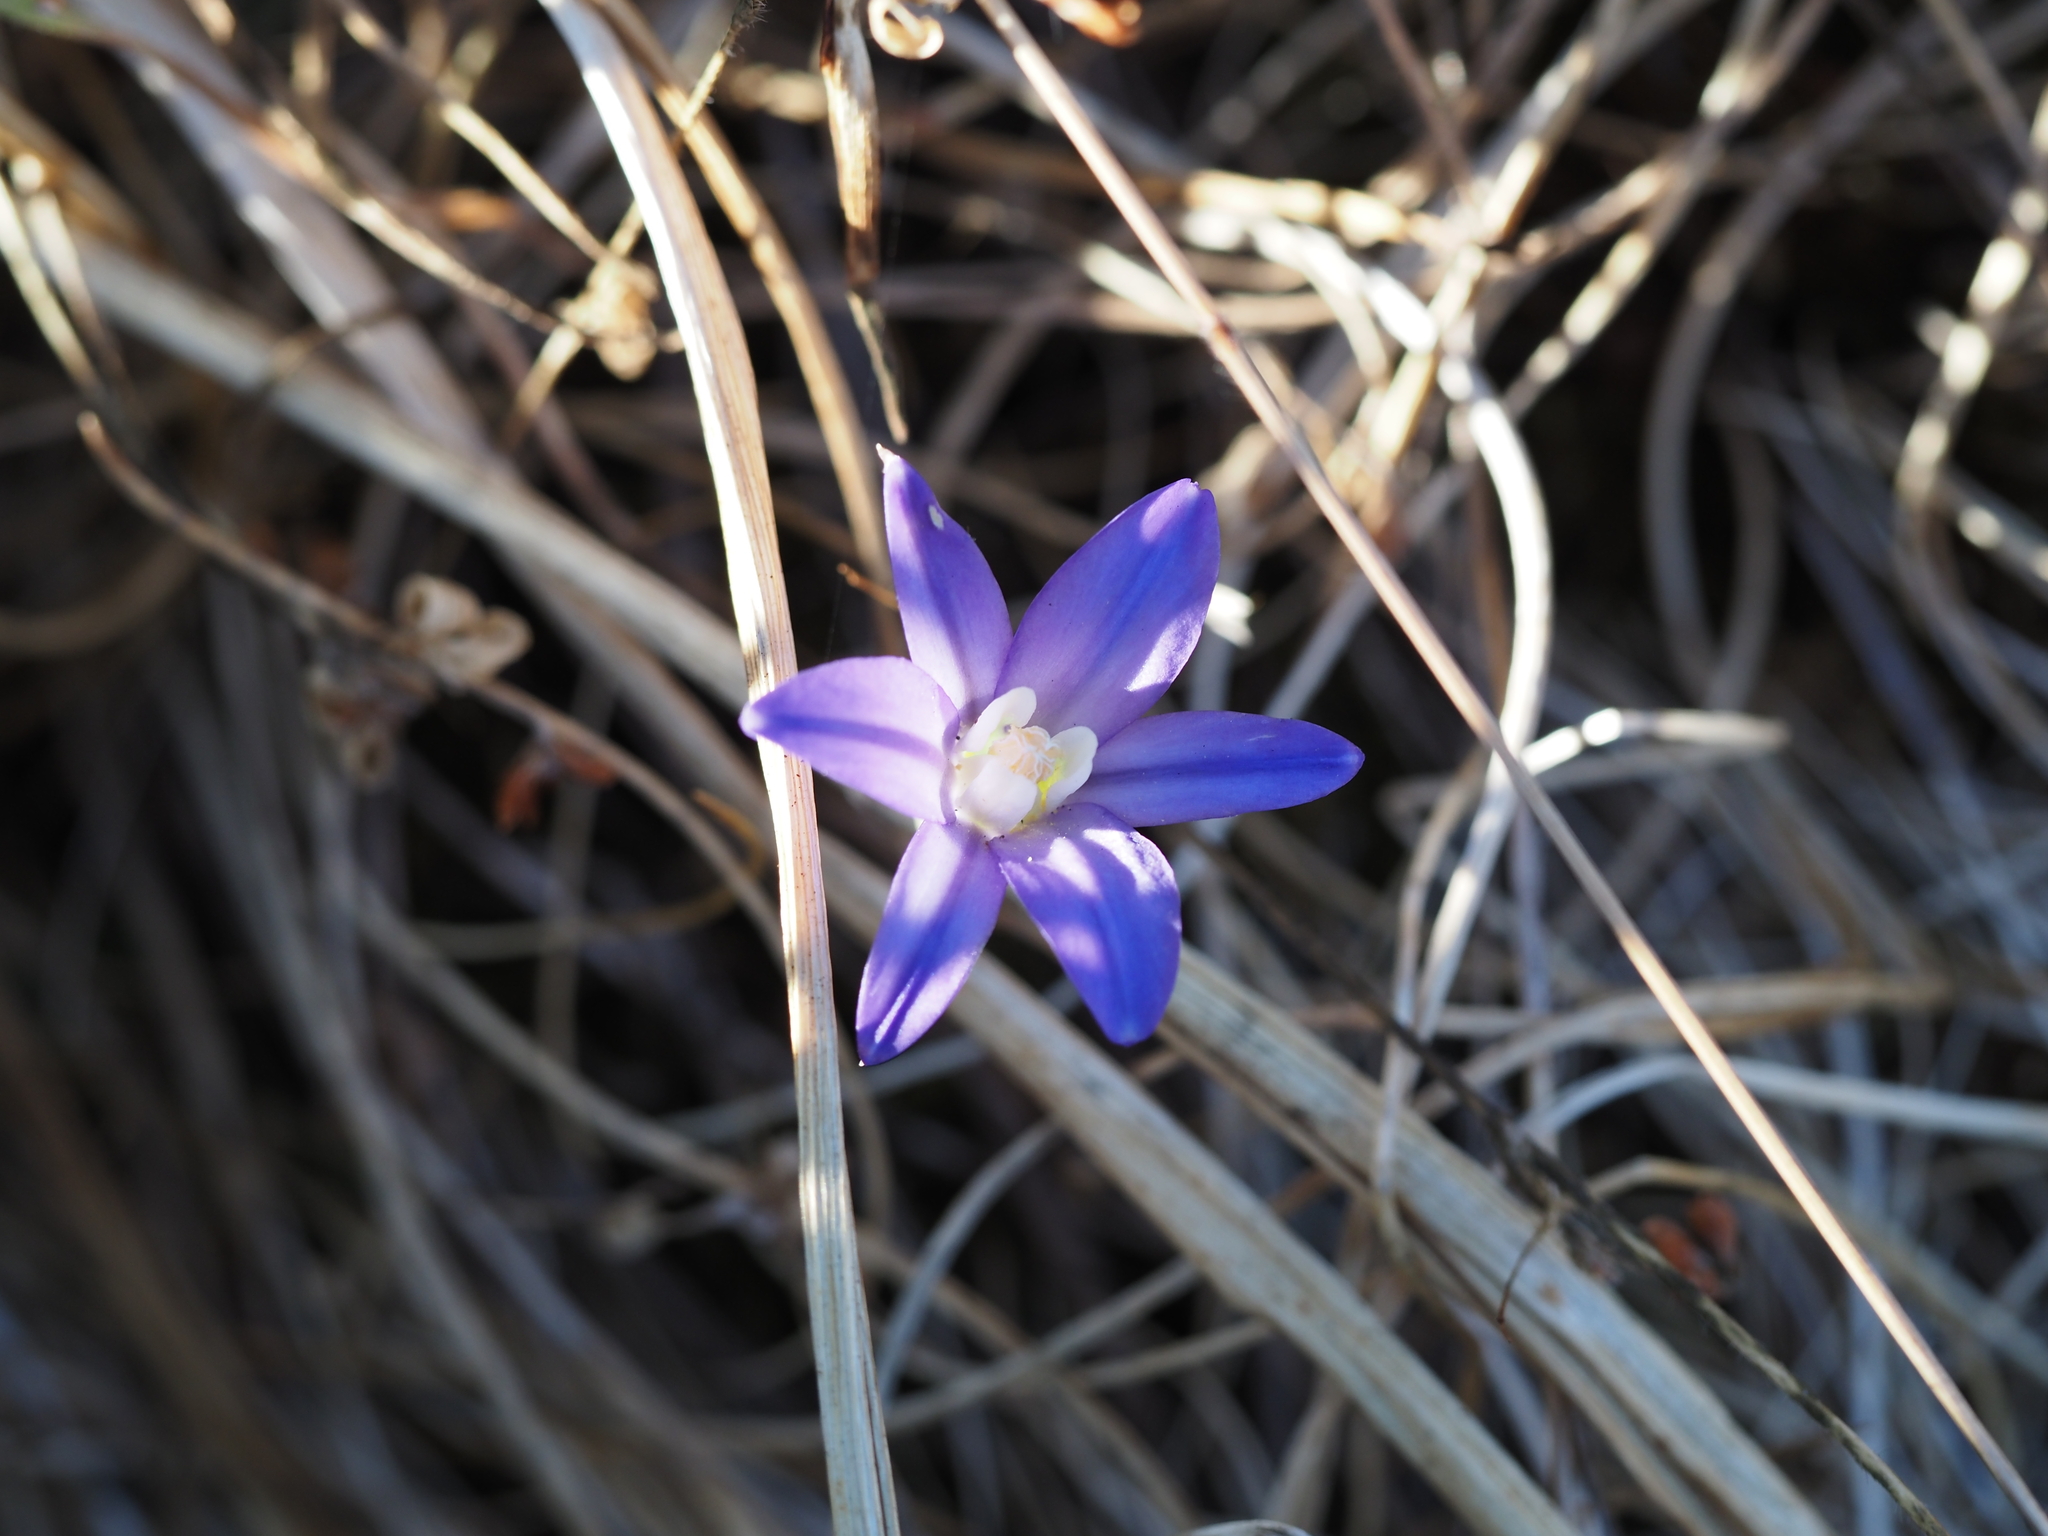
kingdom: Plantae
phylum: Tracheophyta
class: Liliopsida
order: Asparagales
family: Asparagaceae
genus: Brodiaea
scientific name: Brodiaea coronaria
